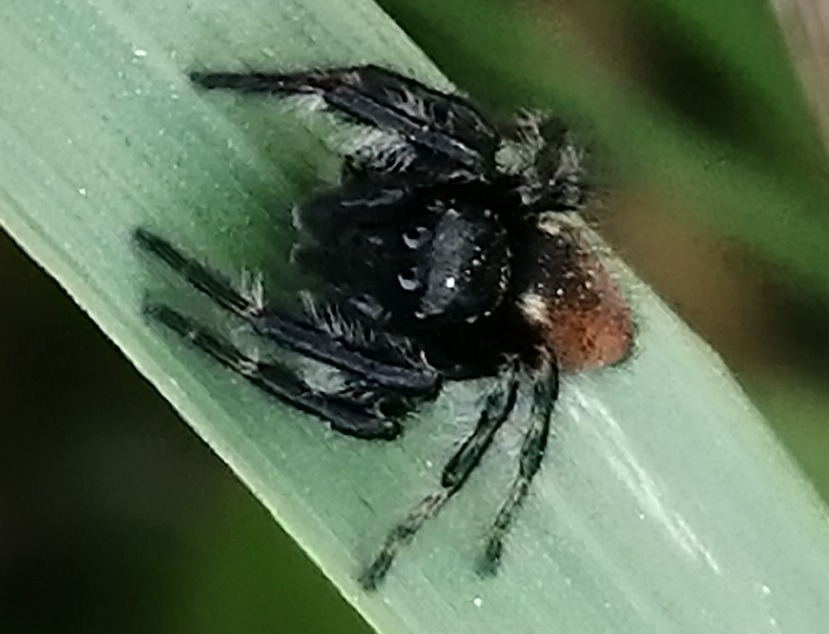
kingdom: Animalia
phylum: Arthropoda
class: Arachnida
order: Araneae
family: Salticidae
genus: Carrhotus
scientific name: Carrhotus xanthogramma
